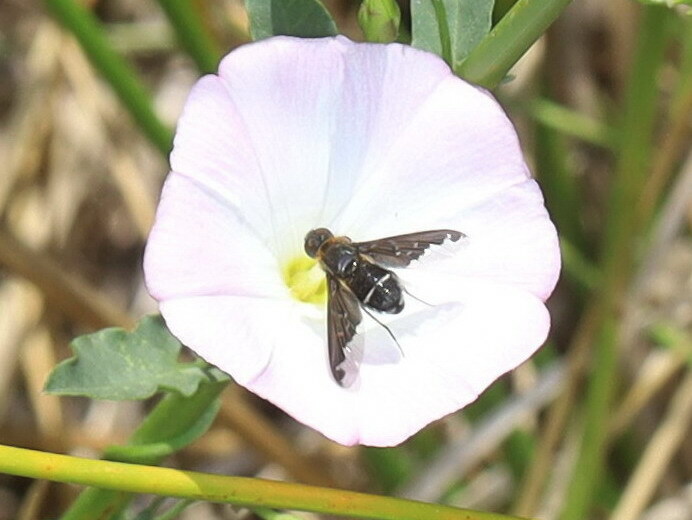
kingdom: Animalia
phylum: Arthropoda
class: Insecta
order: Diptera
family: Bombyliidae
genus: Hemipenthes
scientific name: Hemipenthes velutina
